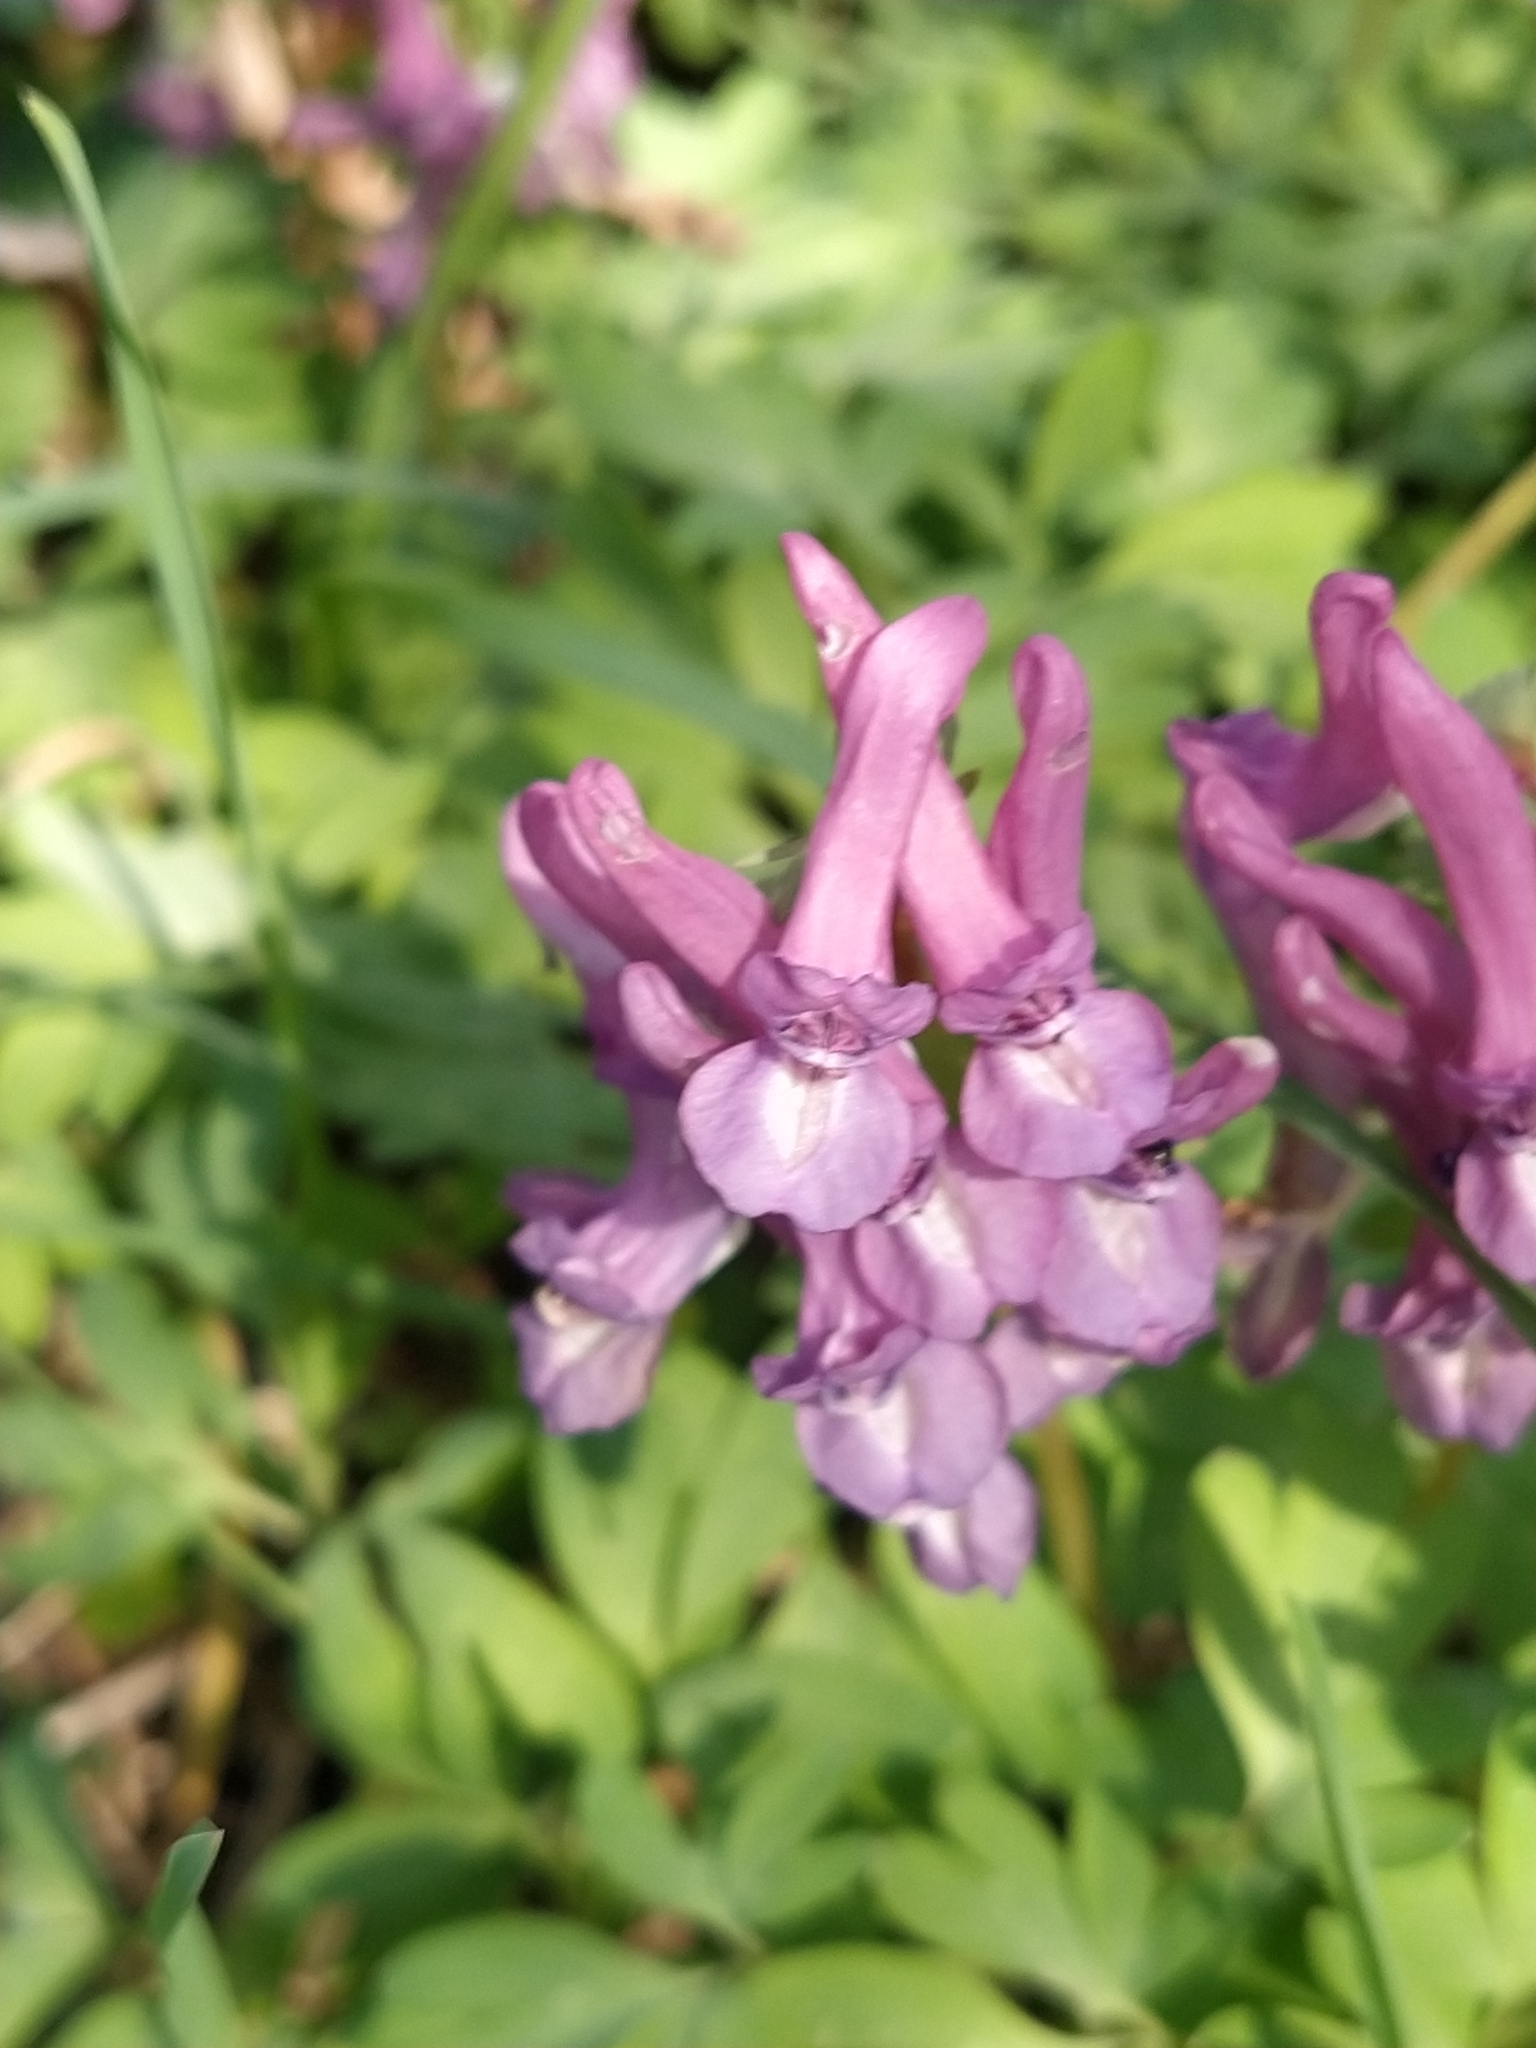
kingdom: Plantae
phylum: Tracheophyta
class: Magnoliopsida
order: Ranunculales
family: Papaveraceae
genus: Corydalis
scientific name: Corydalis solida
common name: Bird-in-a-bush
